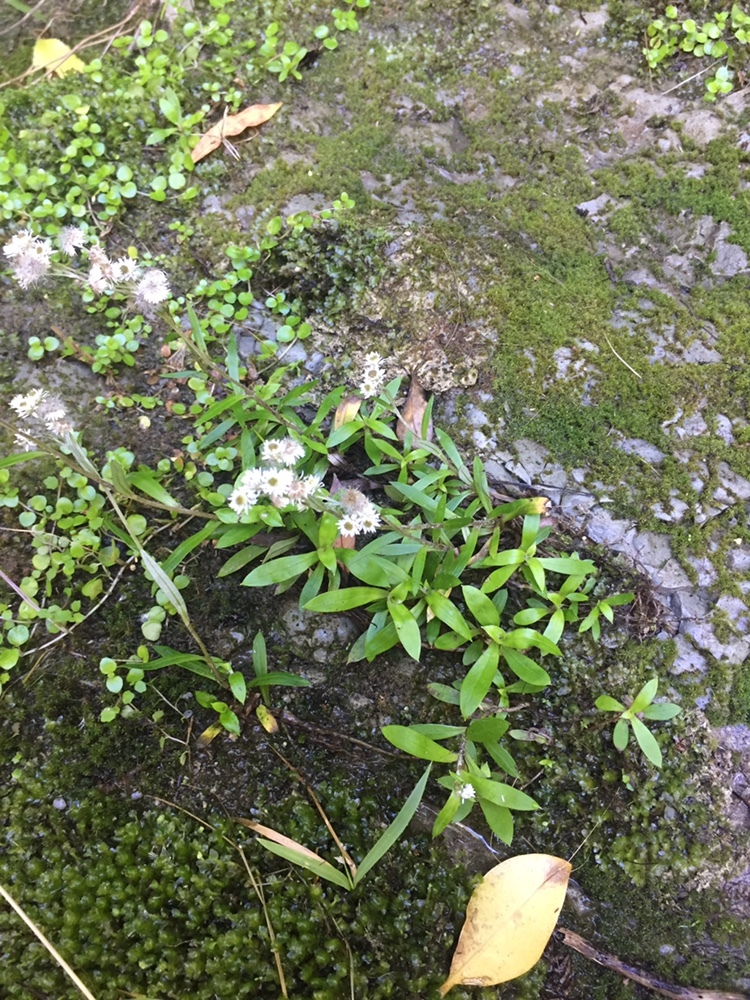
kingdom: Plantae
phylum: Tracheophyta
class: Magnoliopsida
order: Asterales
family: Asteraceae
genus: Anaphalioides
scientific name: Anaphalioides trinervis
